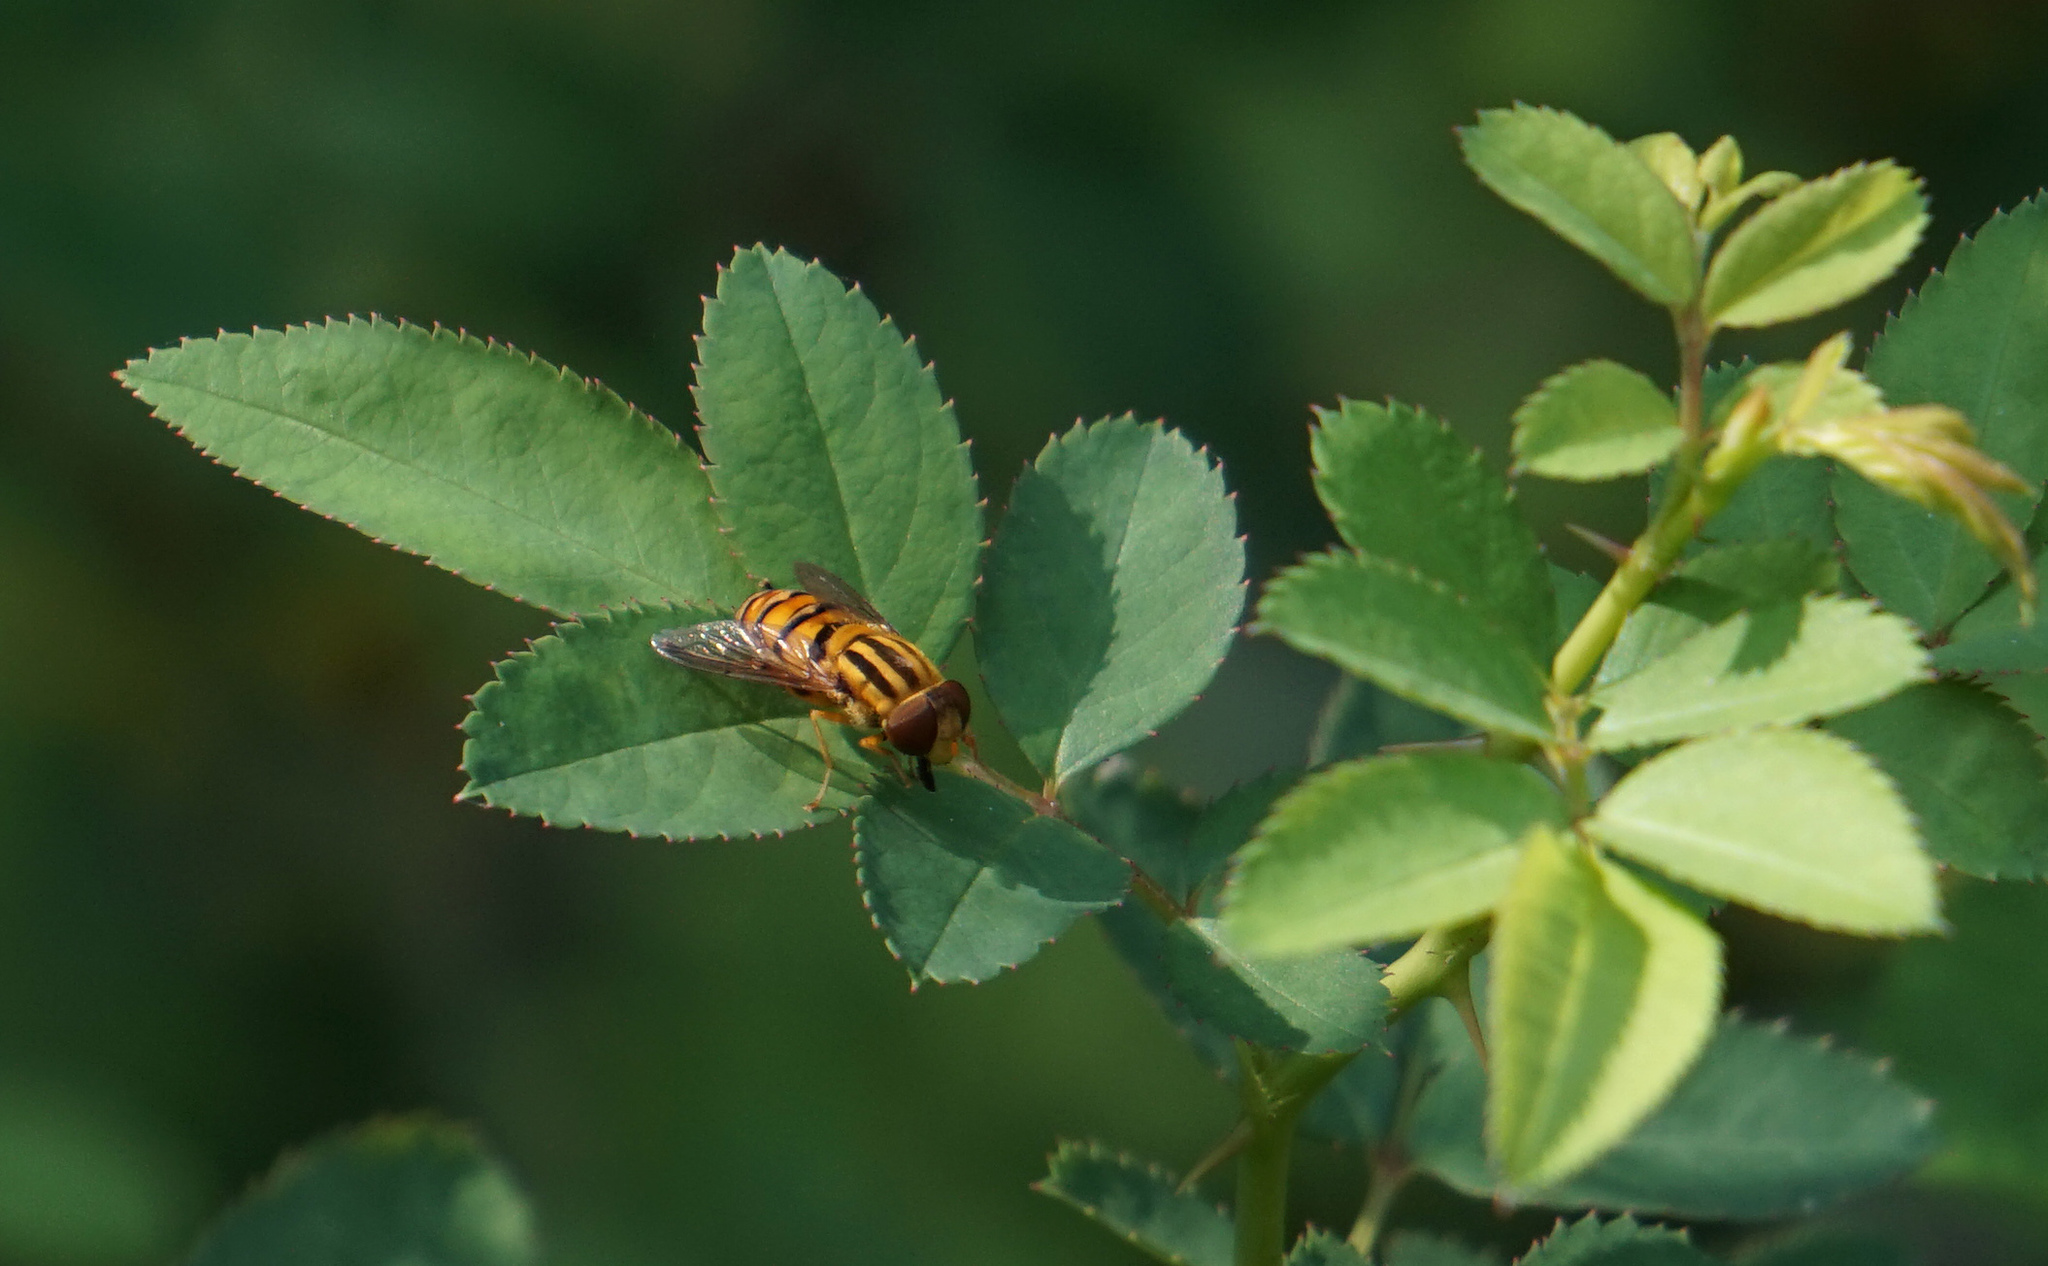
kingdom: Animalia
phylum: Arthropoda
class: Insecta
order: Diptera
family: Syrphidae
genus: Parhelophilus
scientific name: Parhelophilus integer
